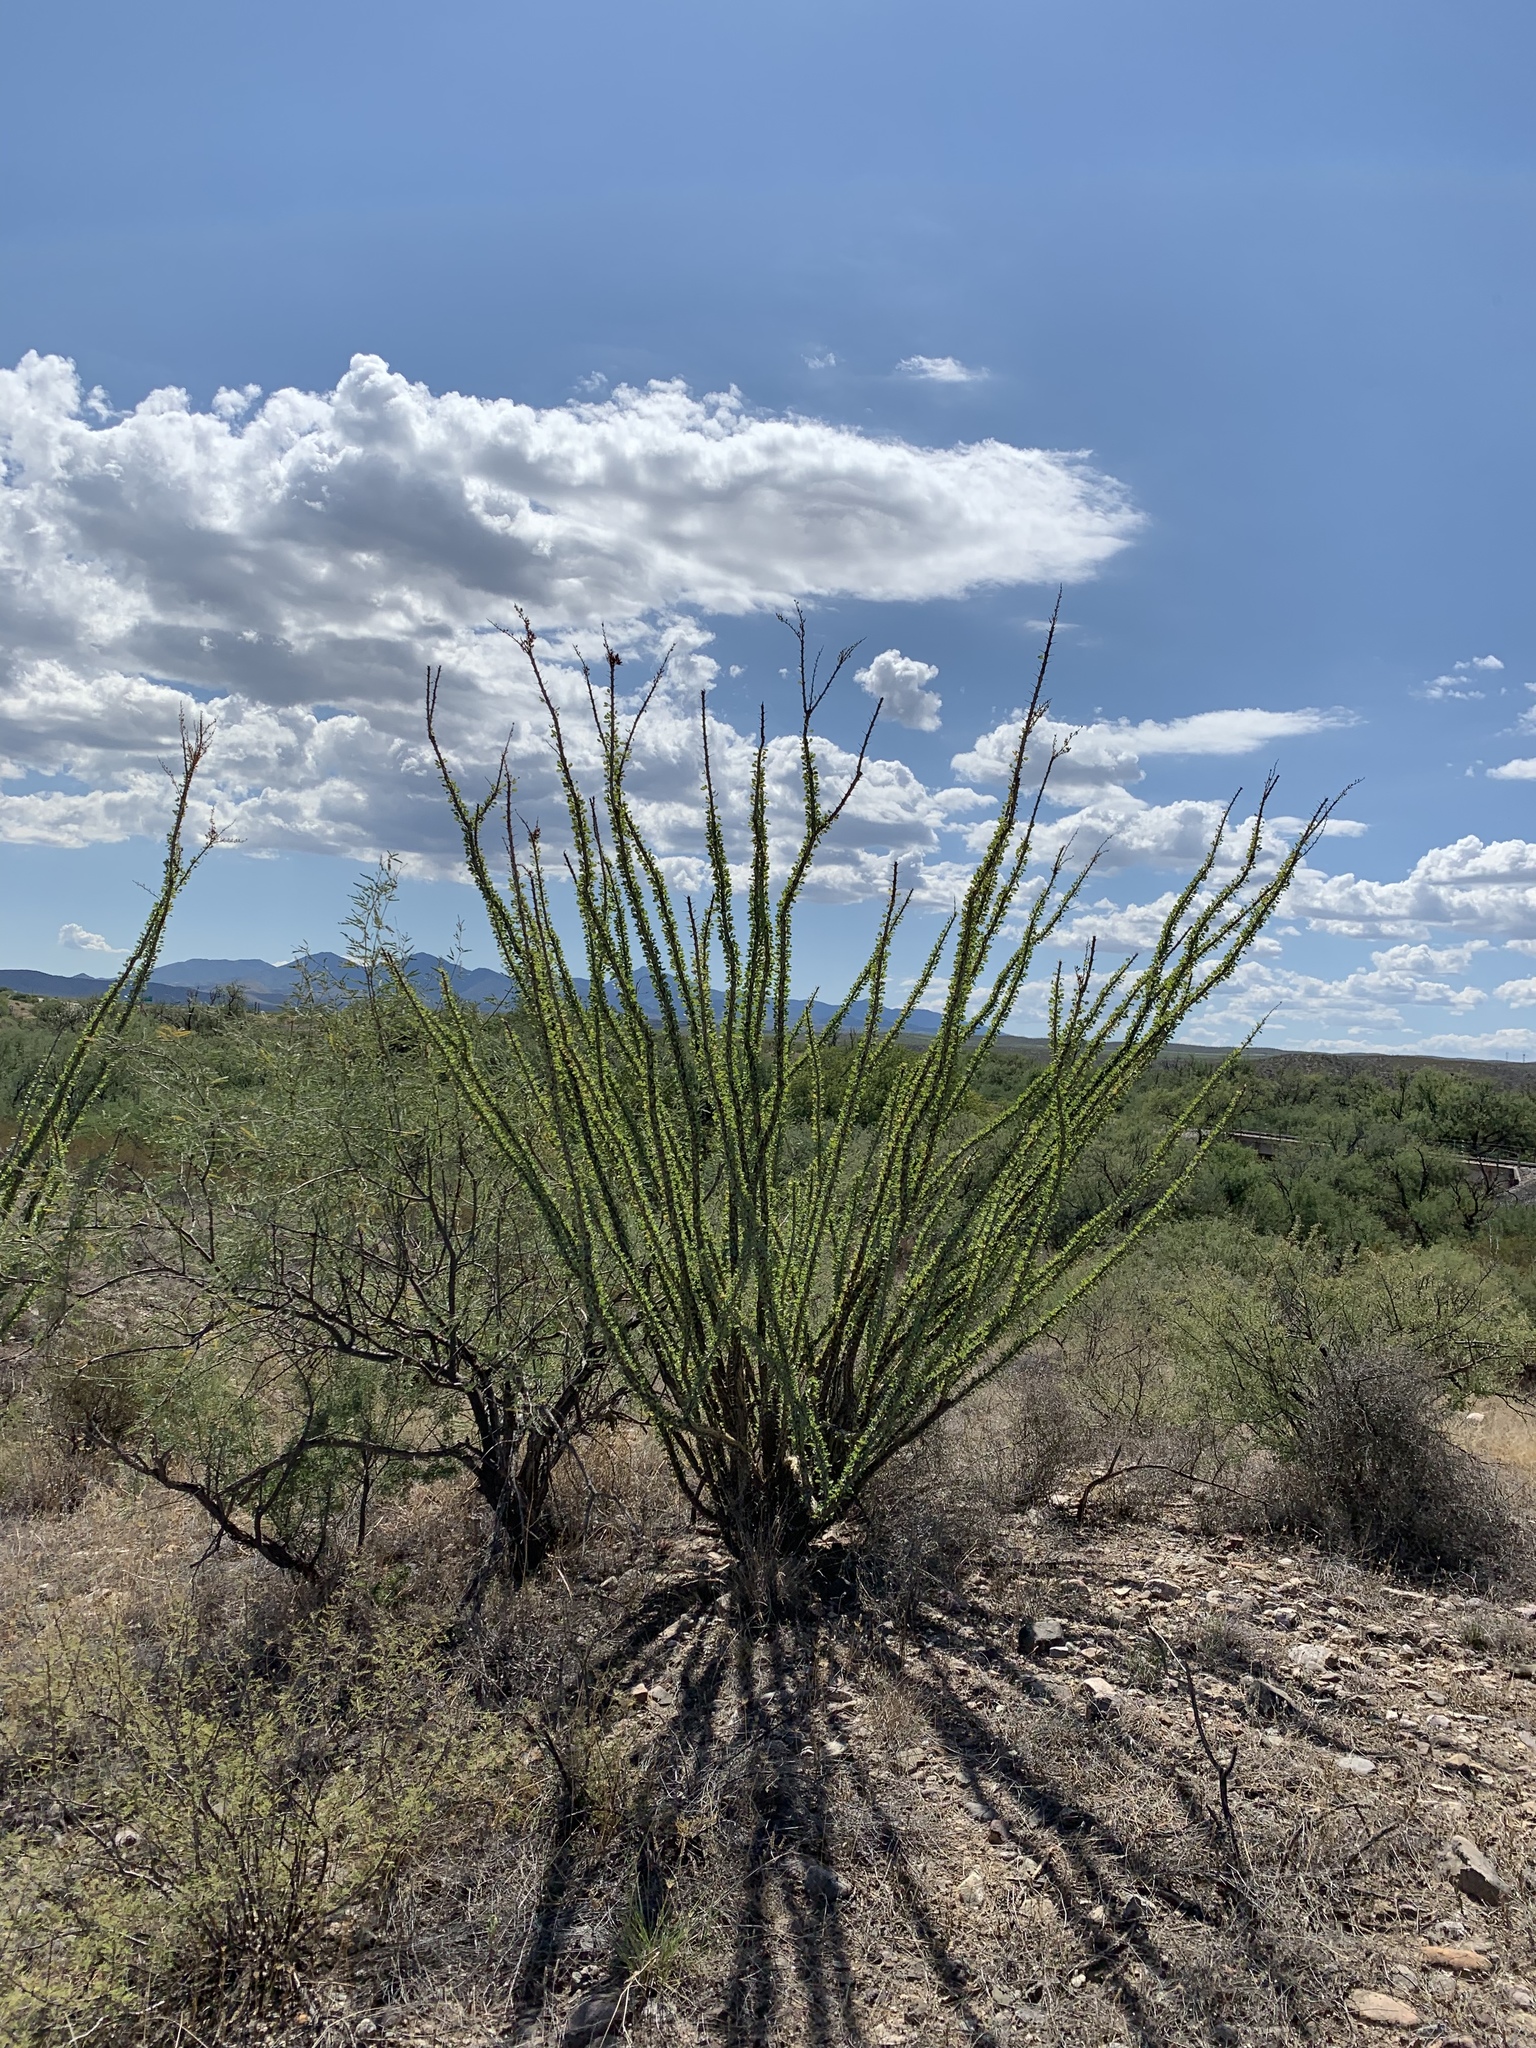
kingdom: Plantae
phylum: Tracheophyta
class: Magnoliopsida
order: Ericales
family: Fouquieriaceae
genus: Fouquieria
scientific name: Fouquieria splendens
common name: Vine-cactus
